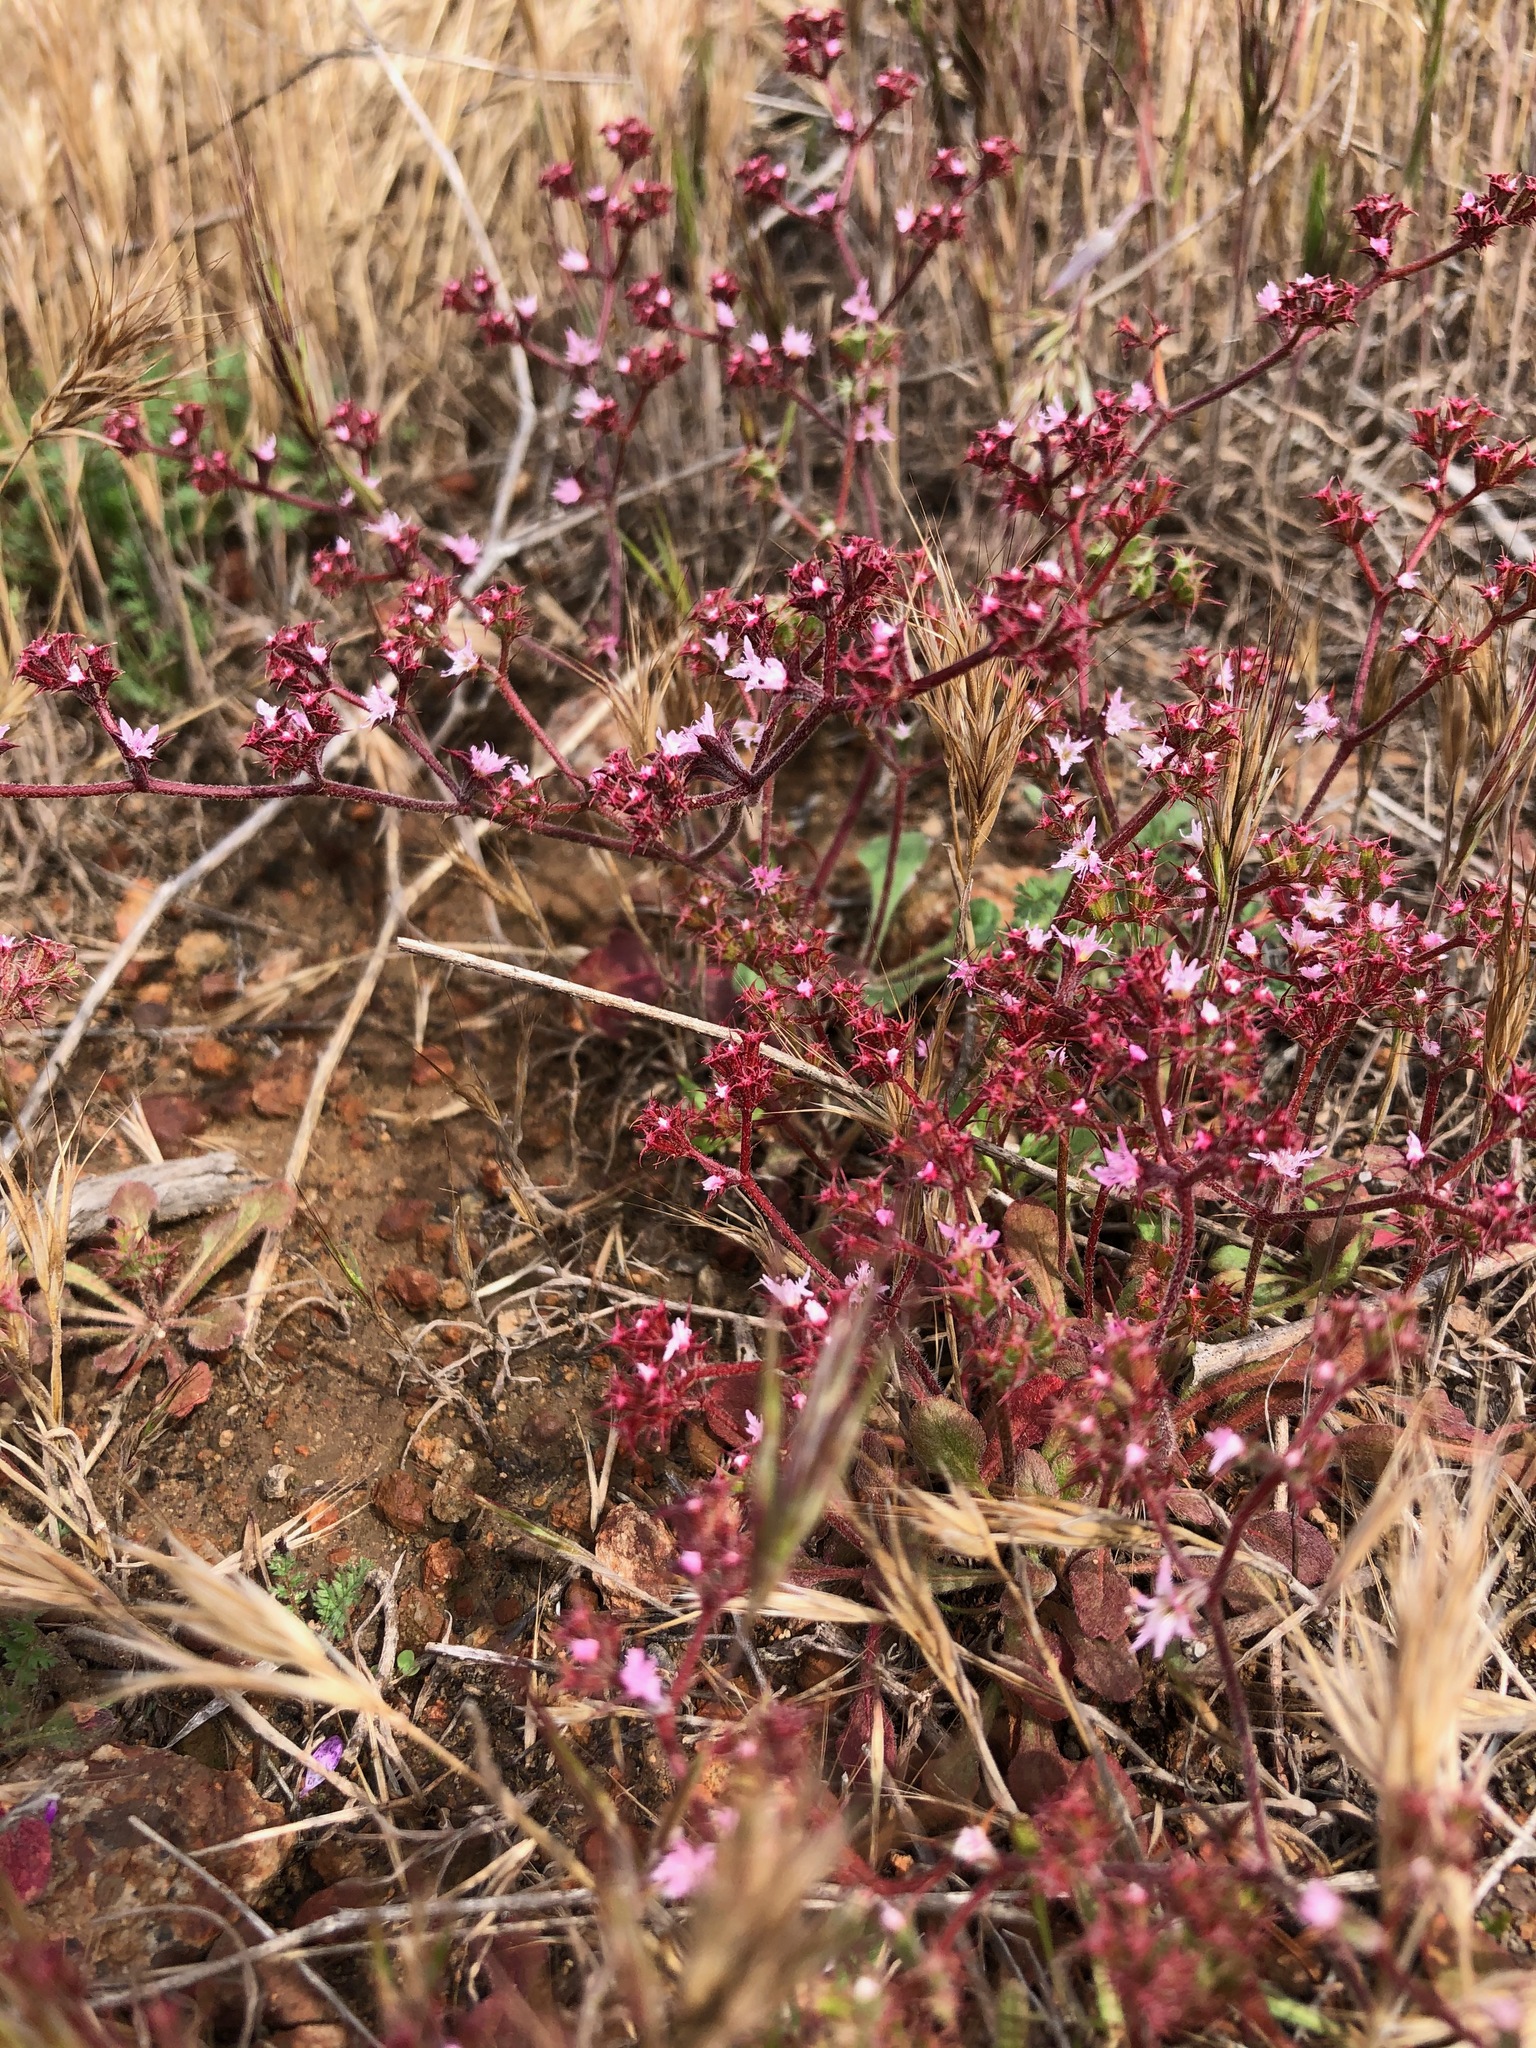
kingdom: Plantae
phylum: Tracheophyta
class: Magnoliopsida
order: Caryophyllales
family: Polygonaceae
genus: Chorizanthe
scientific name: Chorizanthe fimbriata
